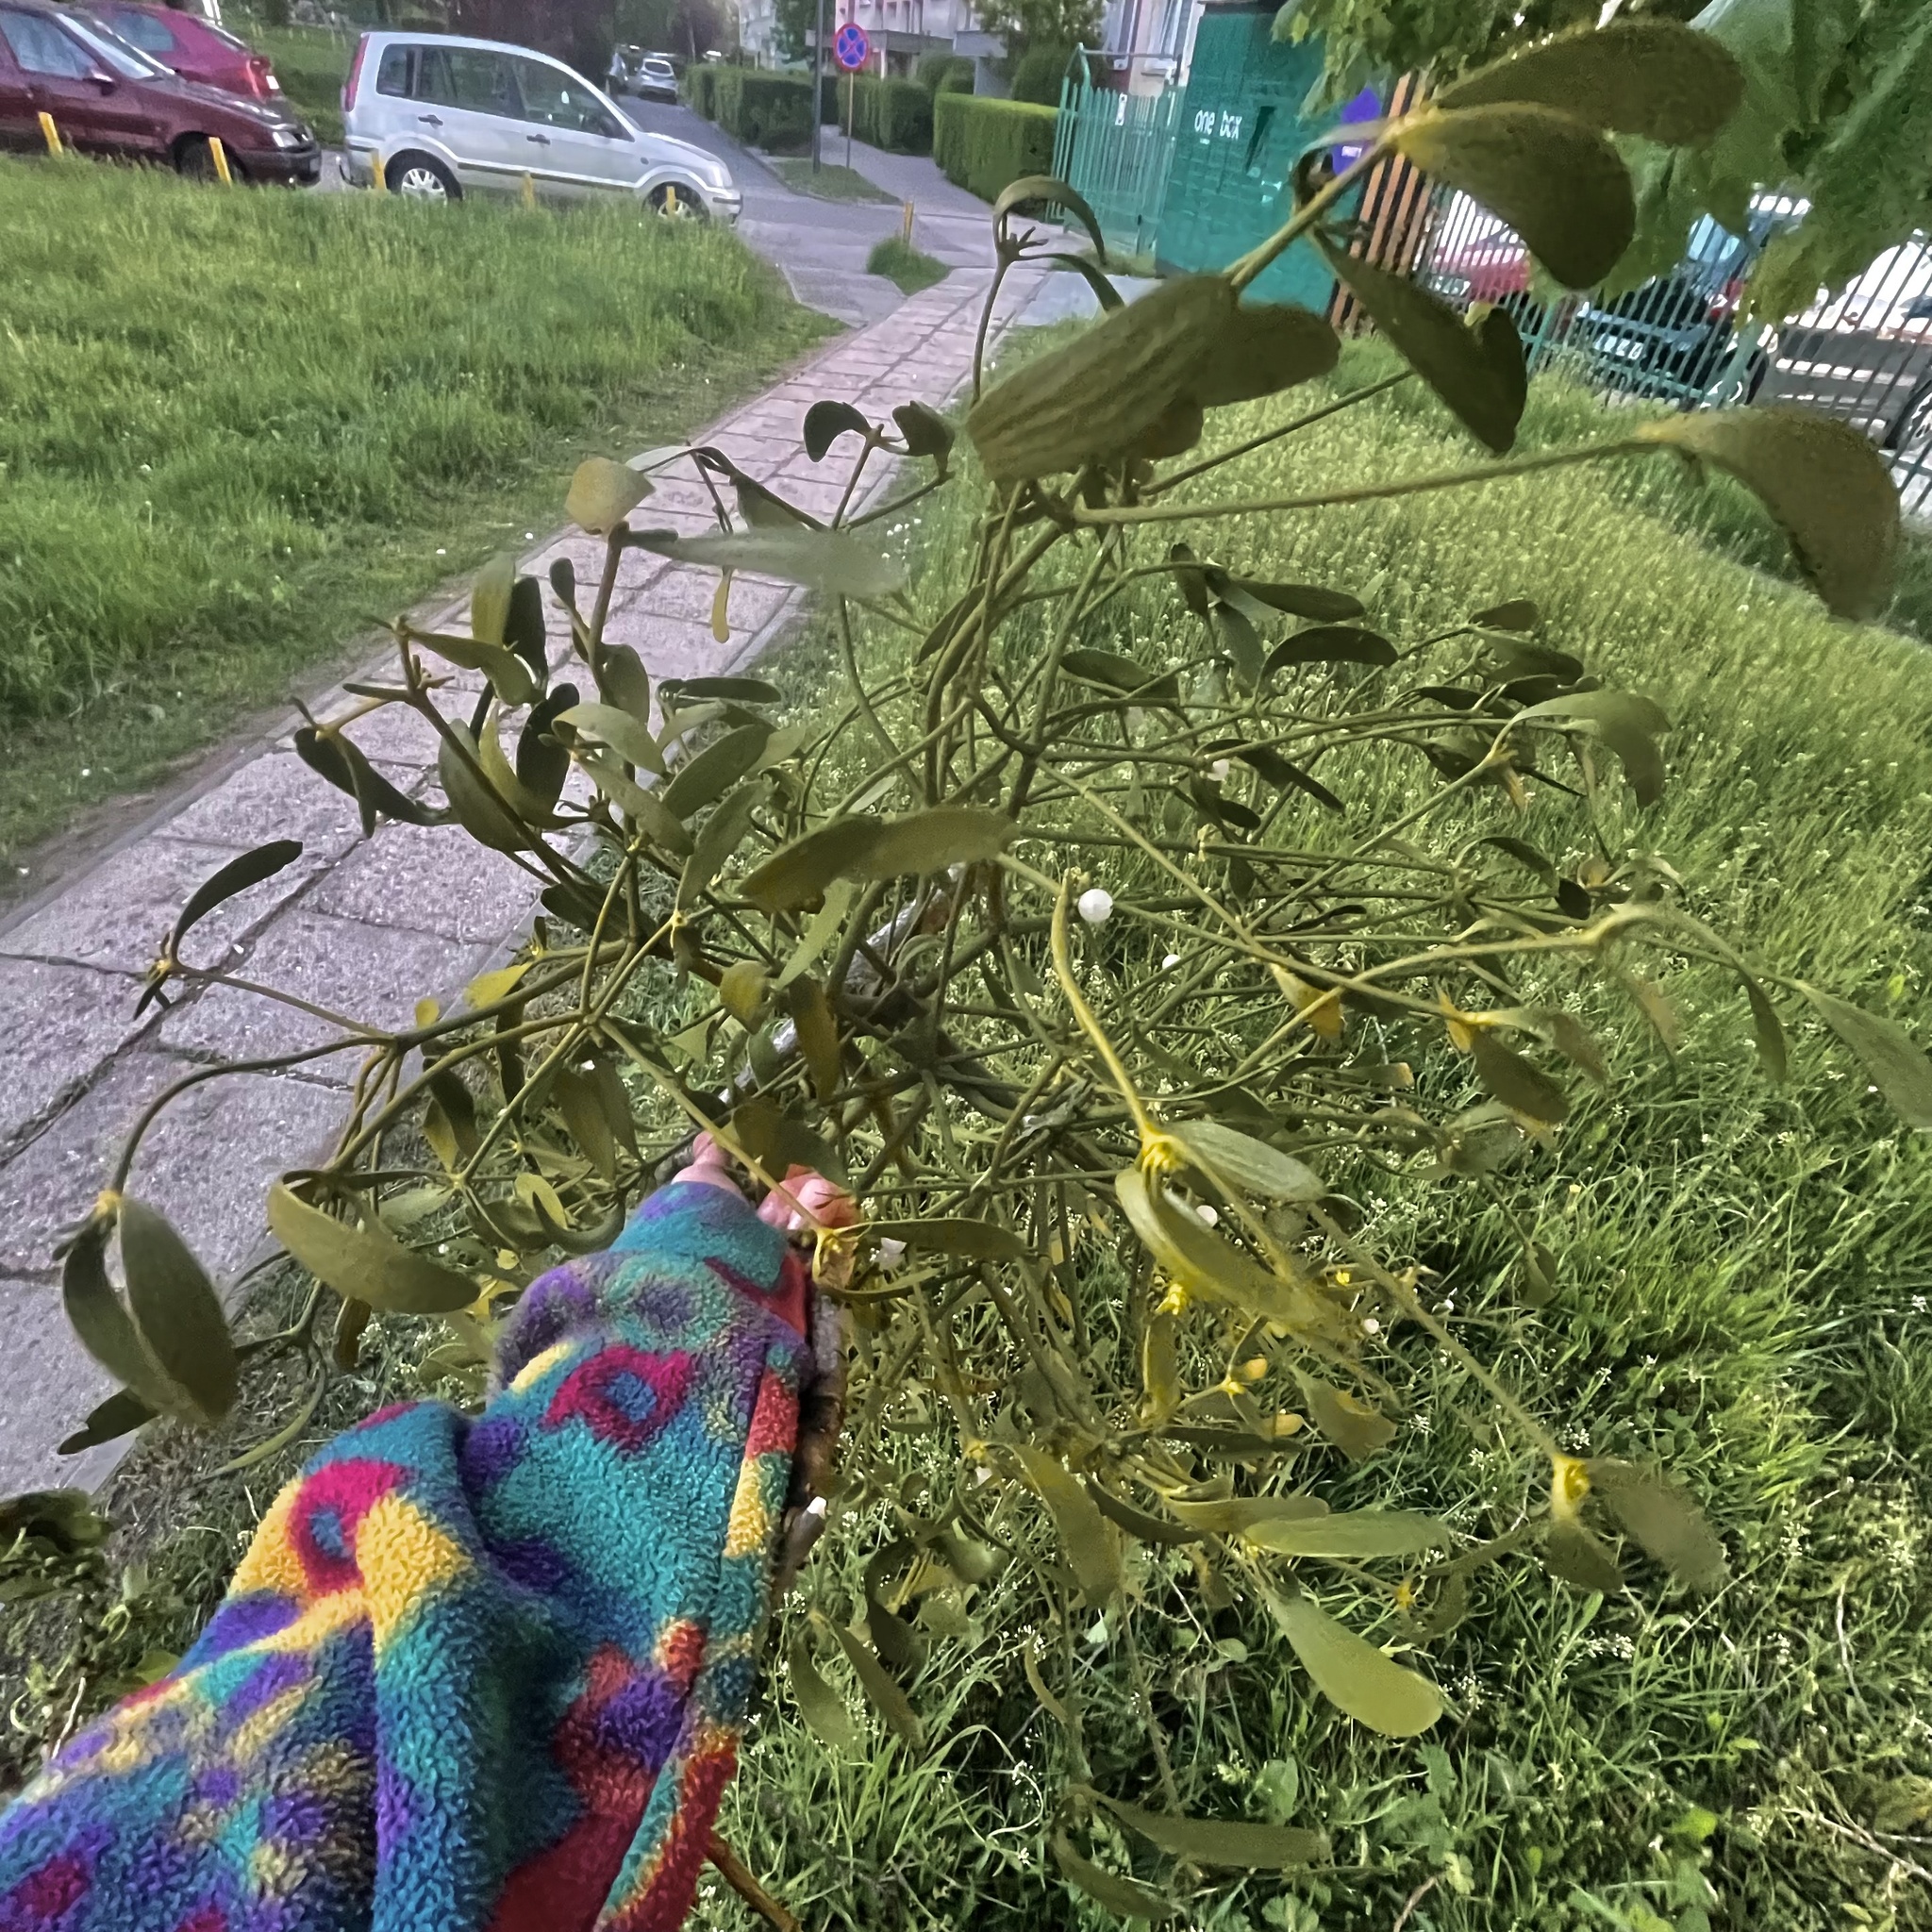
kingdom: Plantae
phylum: Tracheophyta
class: Magnoliopsida
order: Santalales
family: Viscaceae
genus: Viscum
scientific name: Viscum album
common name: Mistletoe
